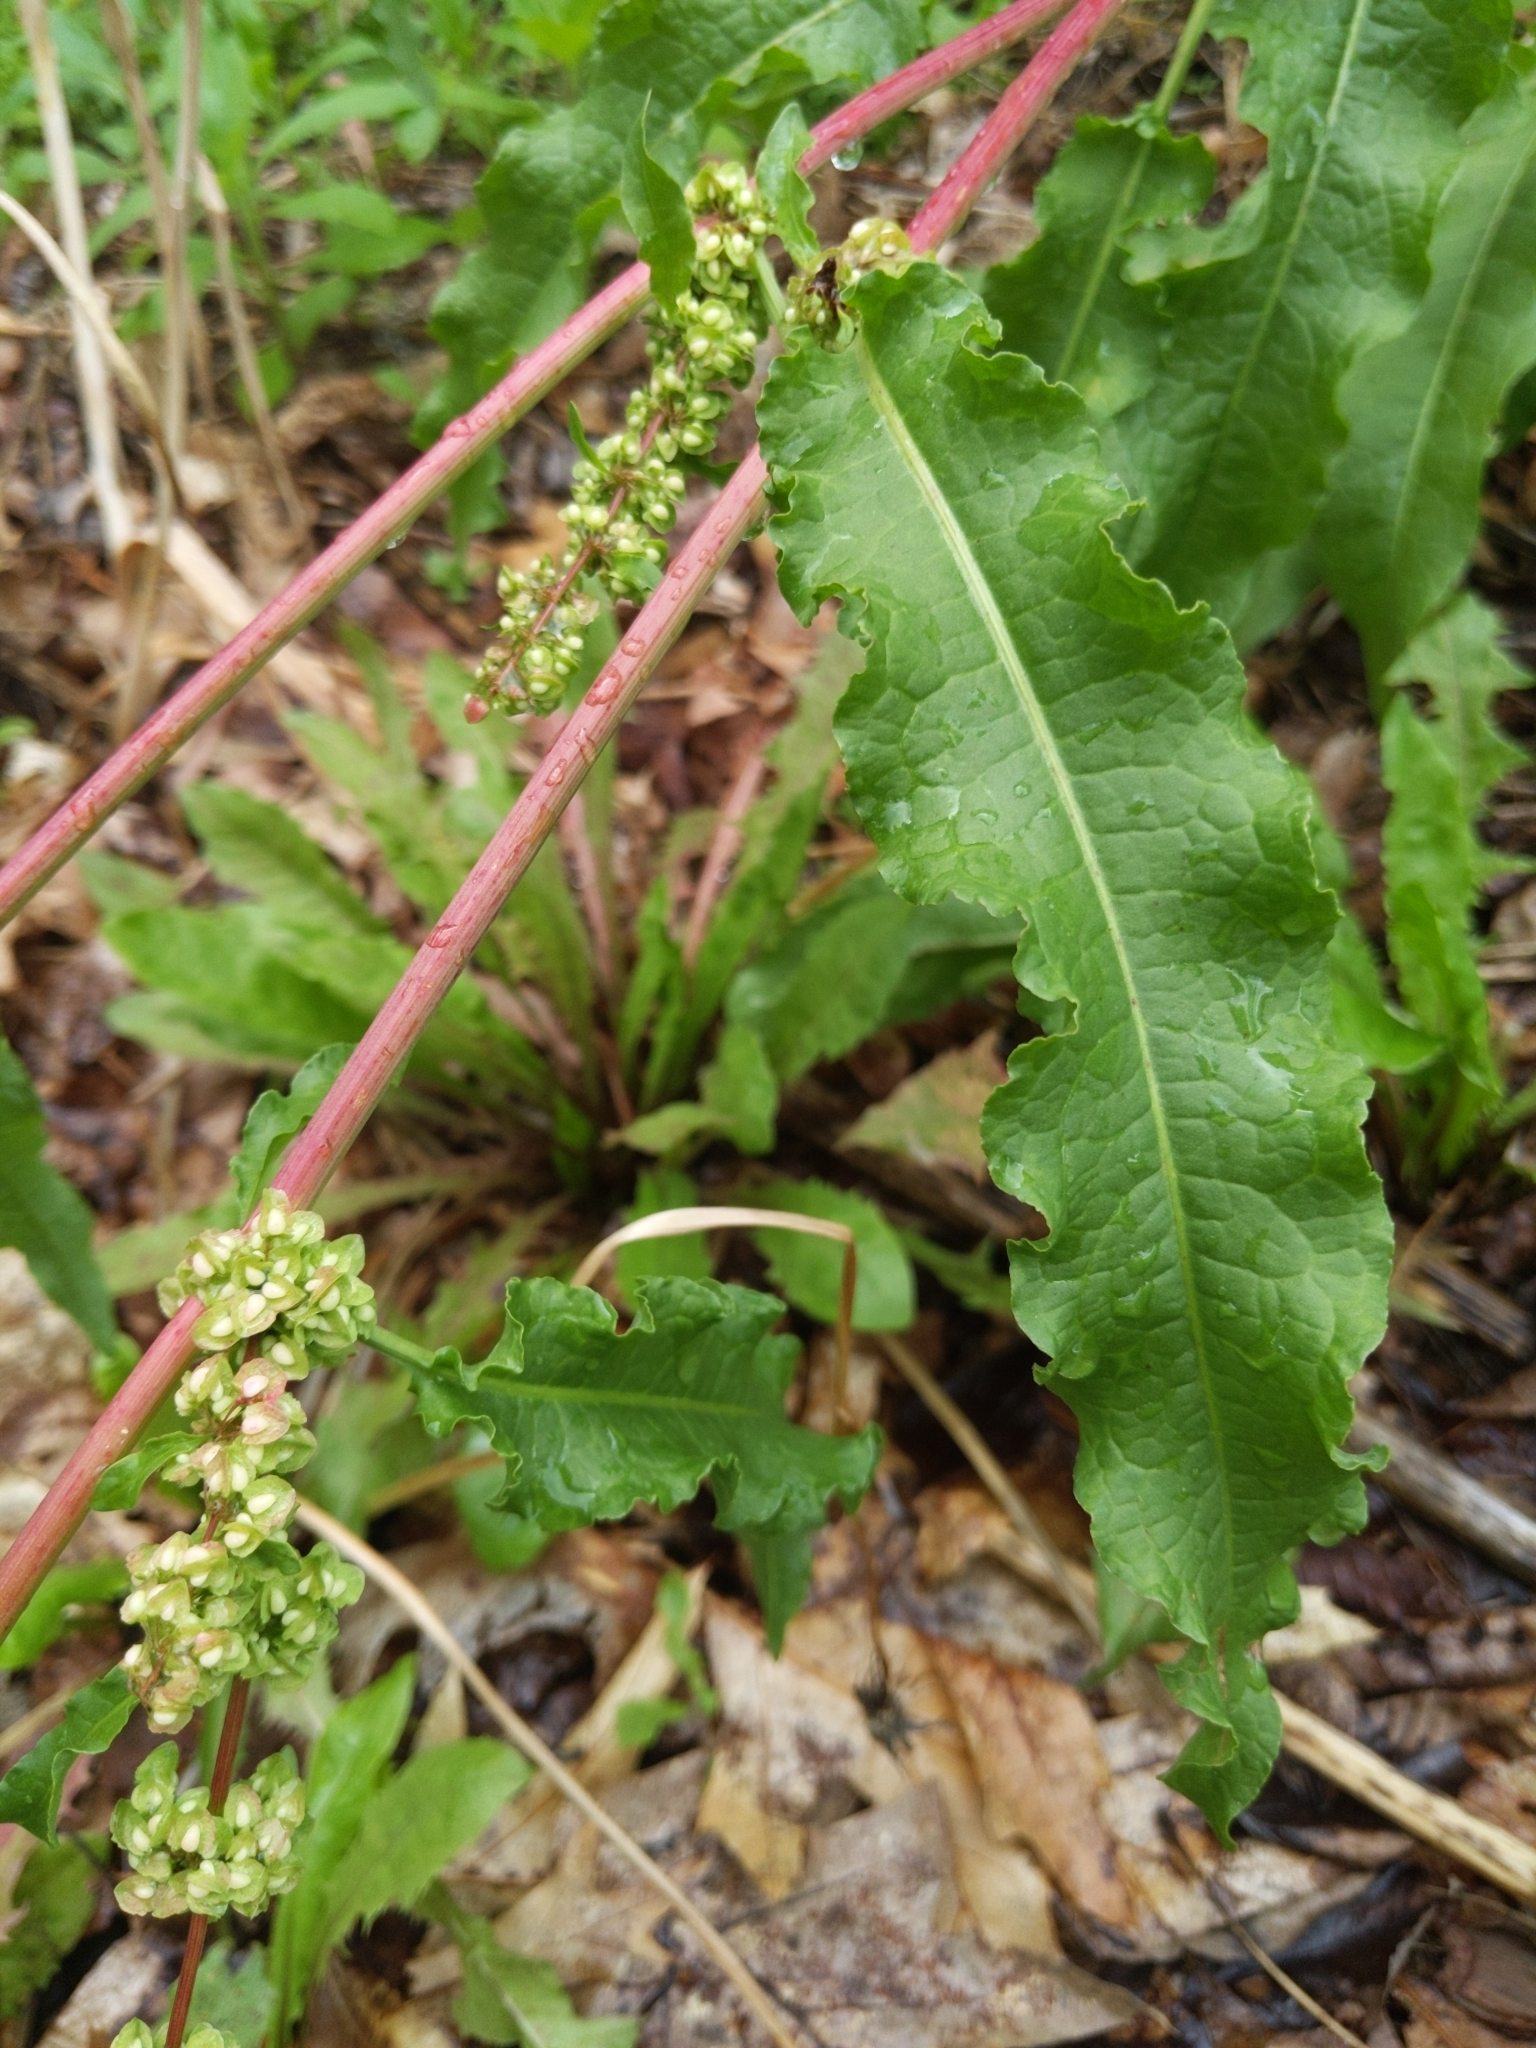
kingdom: Plantae
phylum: Tracheophyta
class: Magnoliopsida
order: Caryophyllales
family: Polygonaceae
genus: Rumex
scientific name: Rumex crispus
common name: Curled dock
